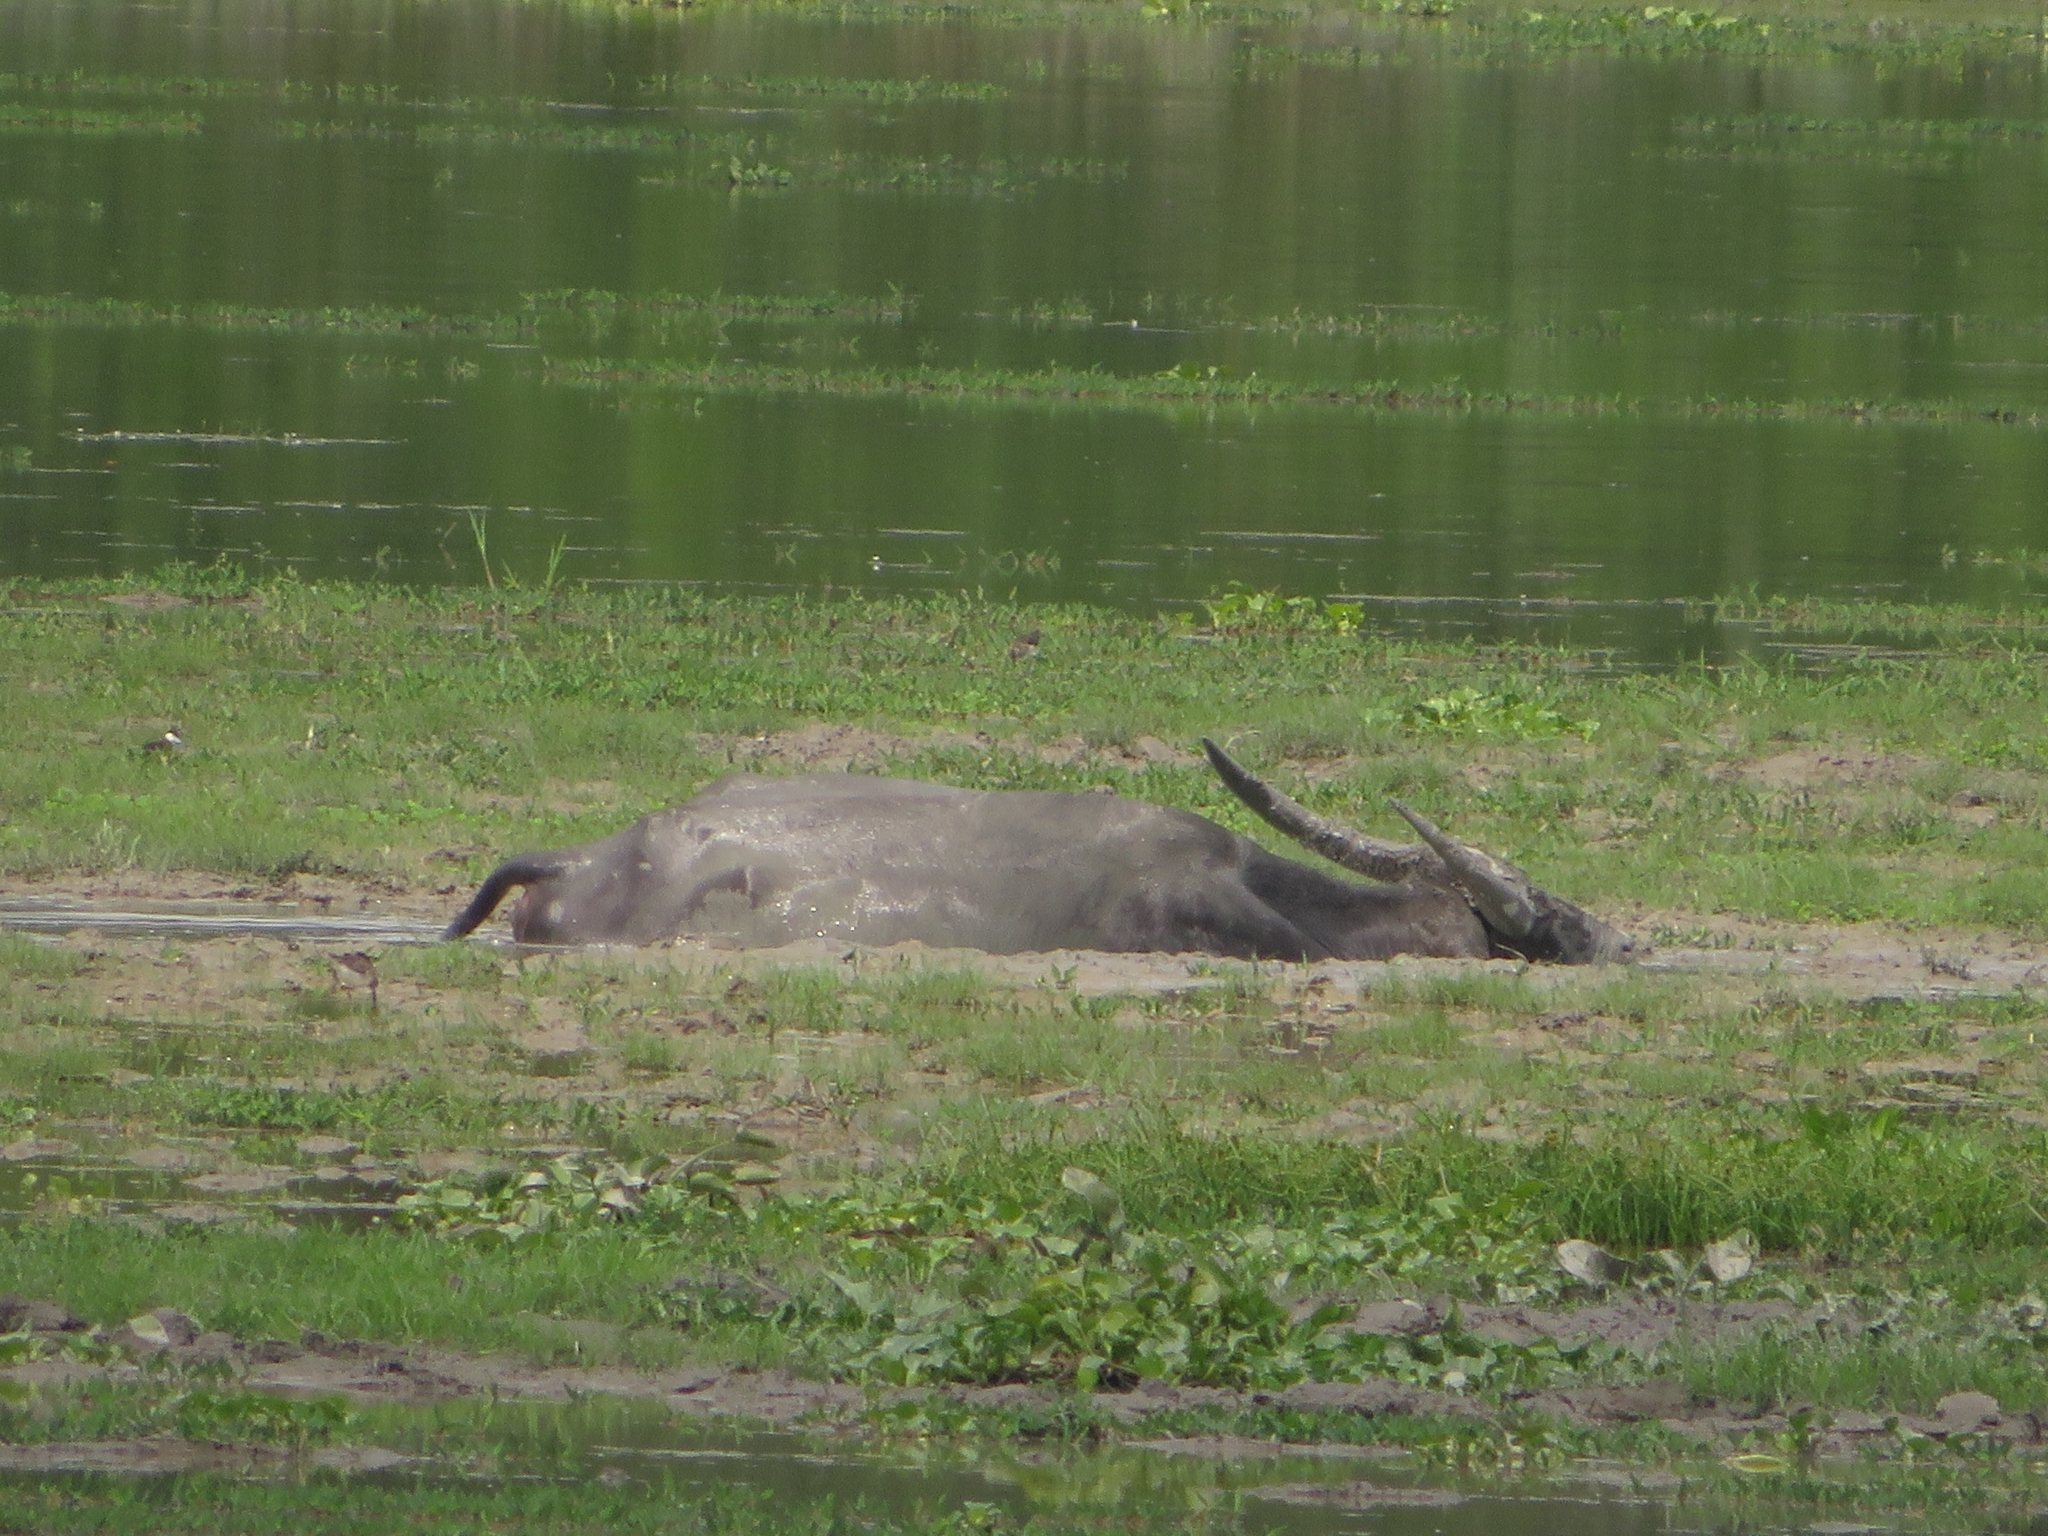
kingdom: Animalia
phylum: Chordata
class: Mammalia
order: Artiodactyla
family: Bovidae
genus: Bubalus
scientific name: Bubalus bubalis
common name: Water buffalo
